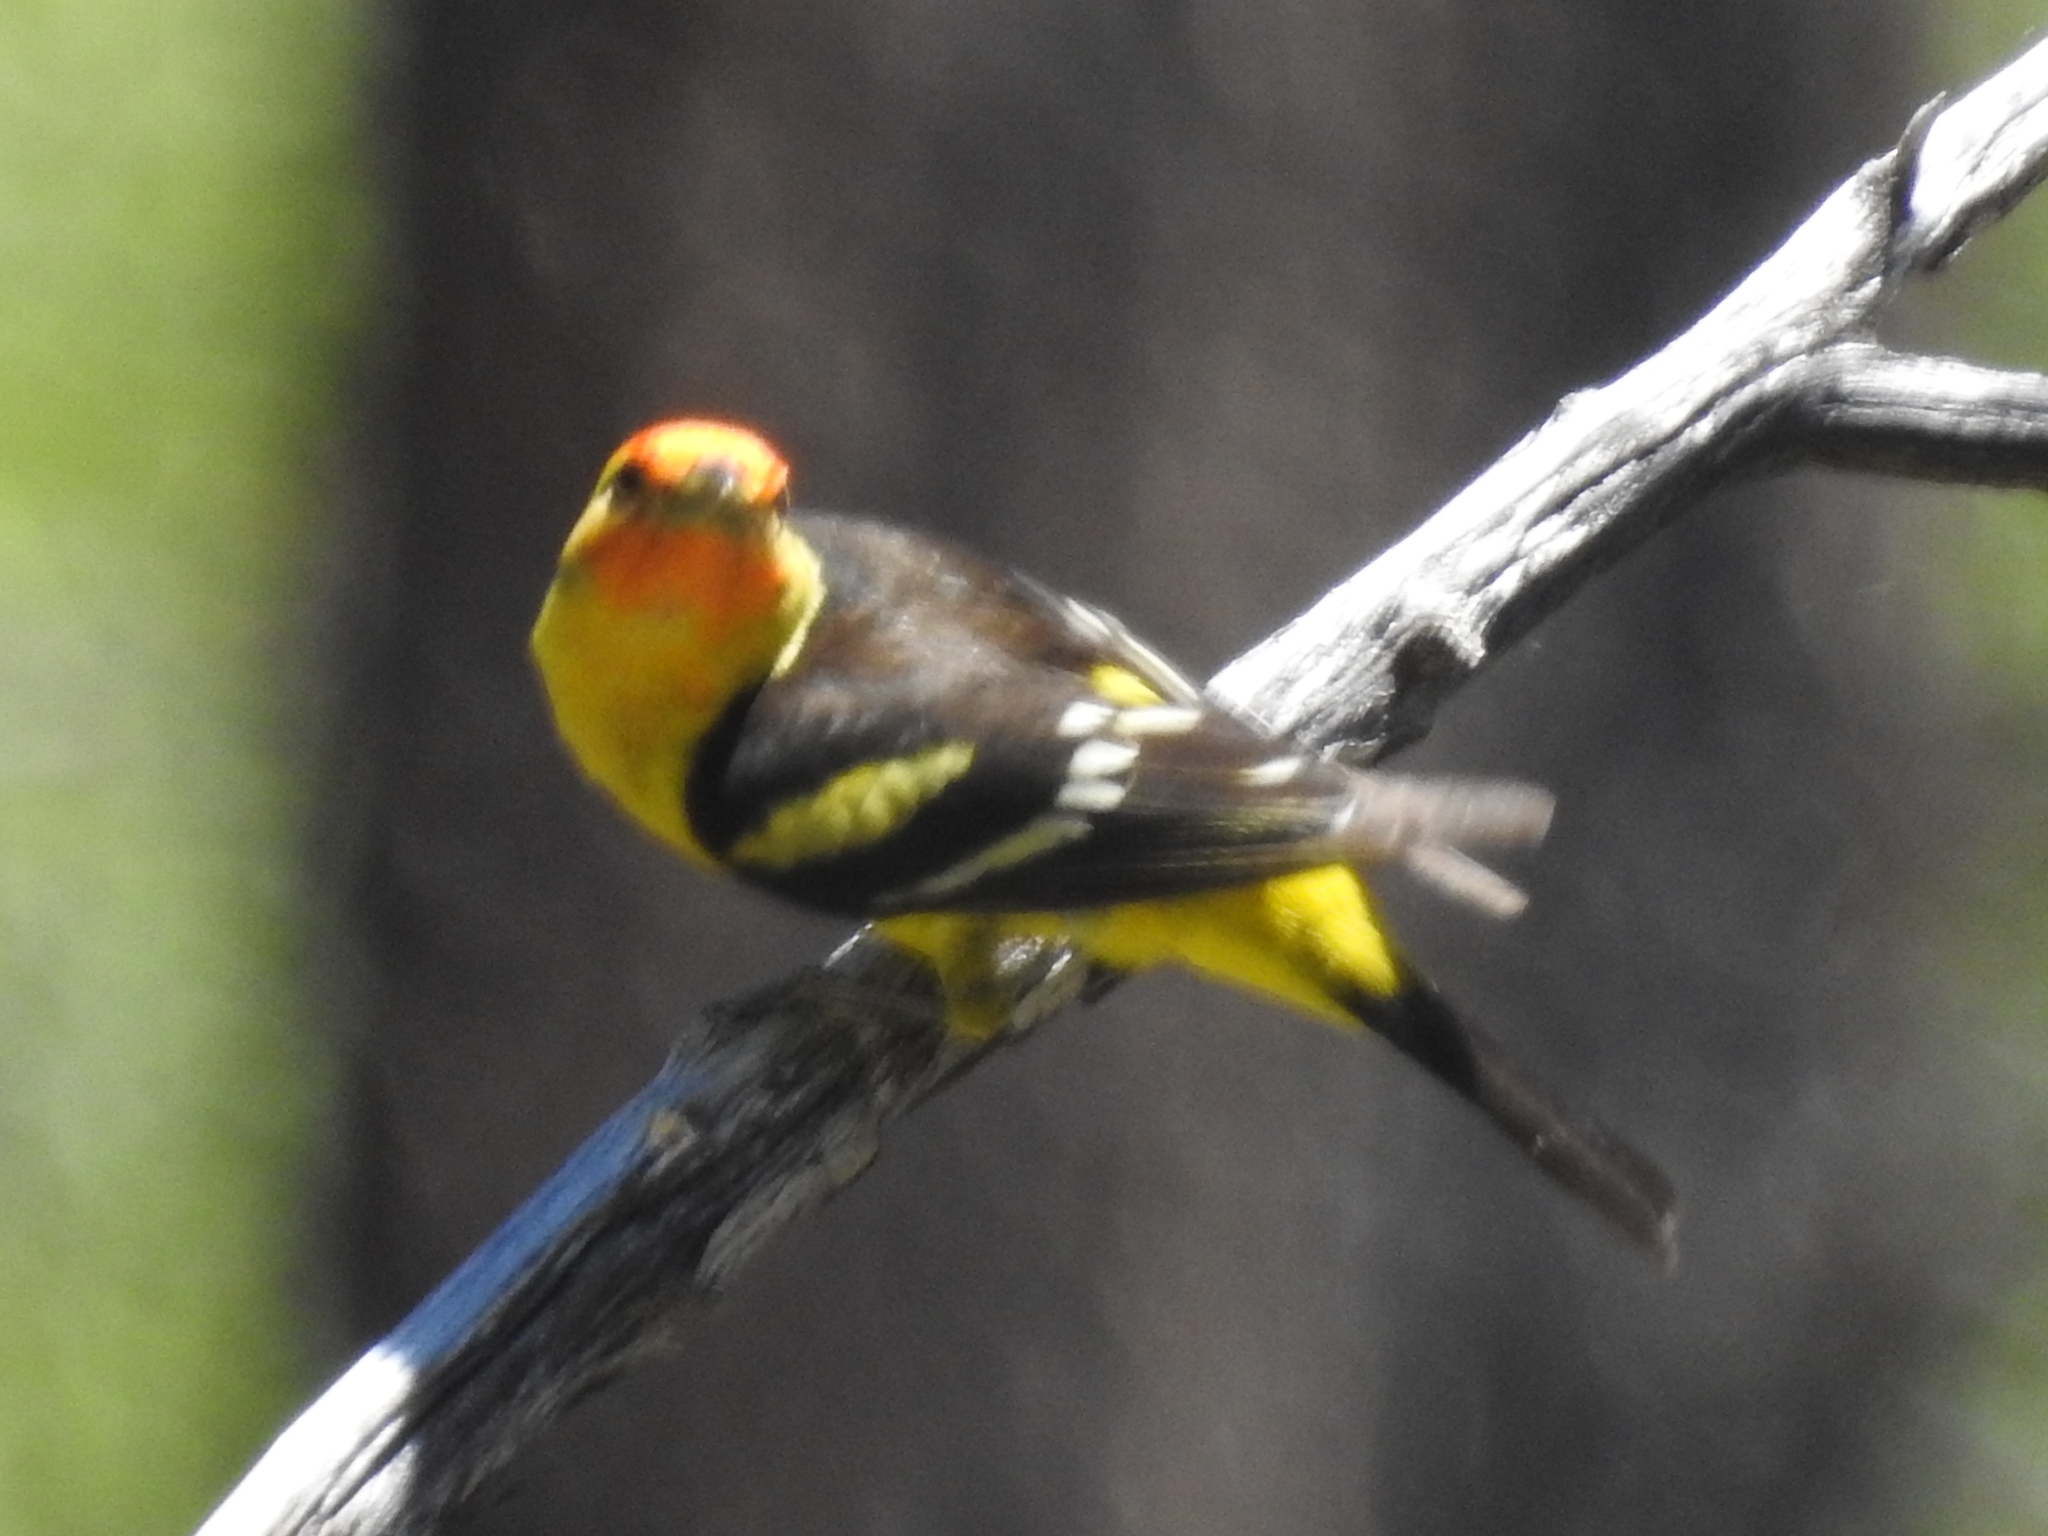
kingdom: Animalia
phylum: Chordata
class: Aves
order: Passeriformes
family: Cardinalidae
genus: Piranga
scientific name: Piranga ludoviciana
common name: Western tanager
